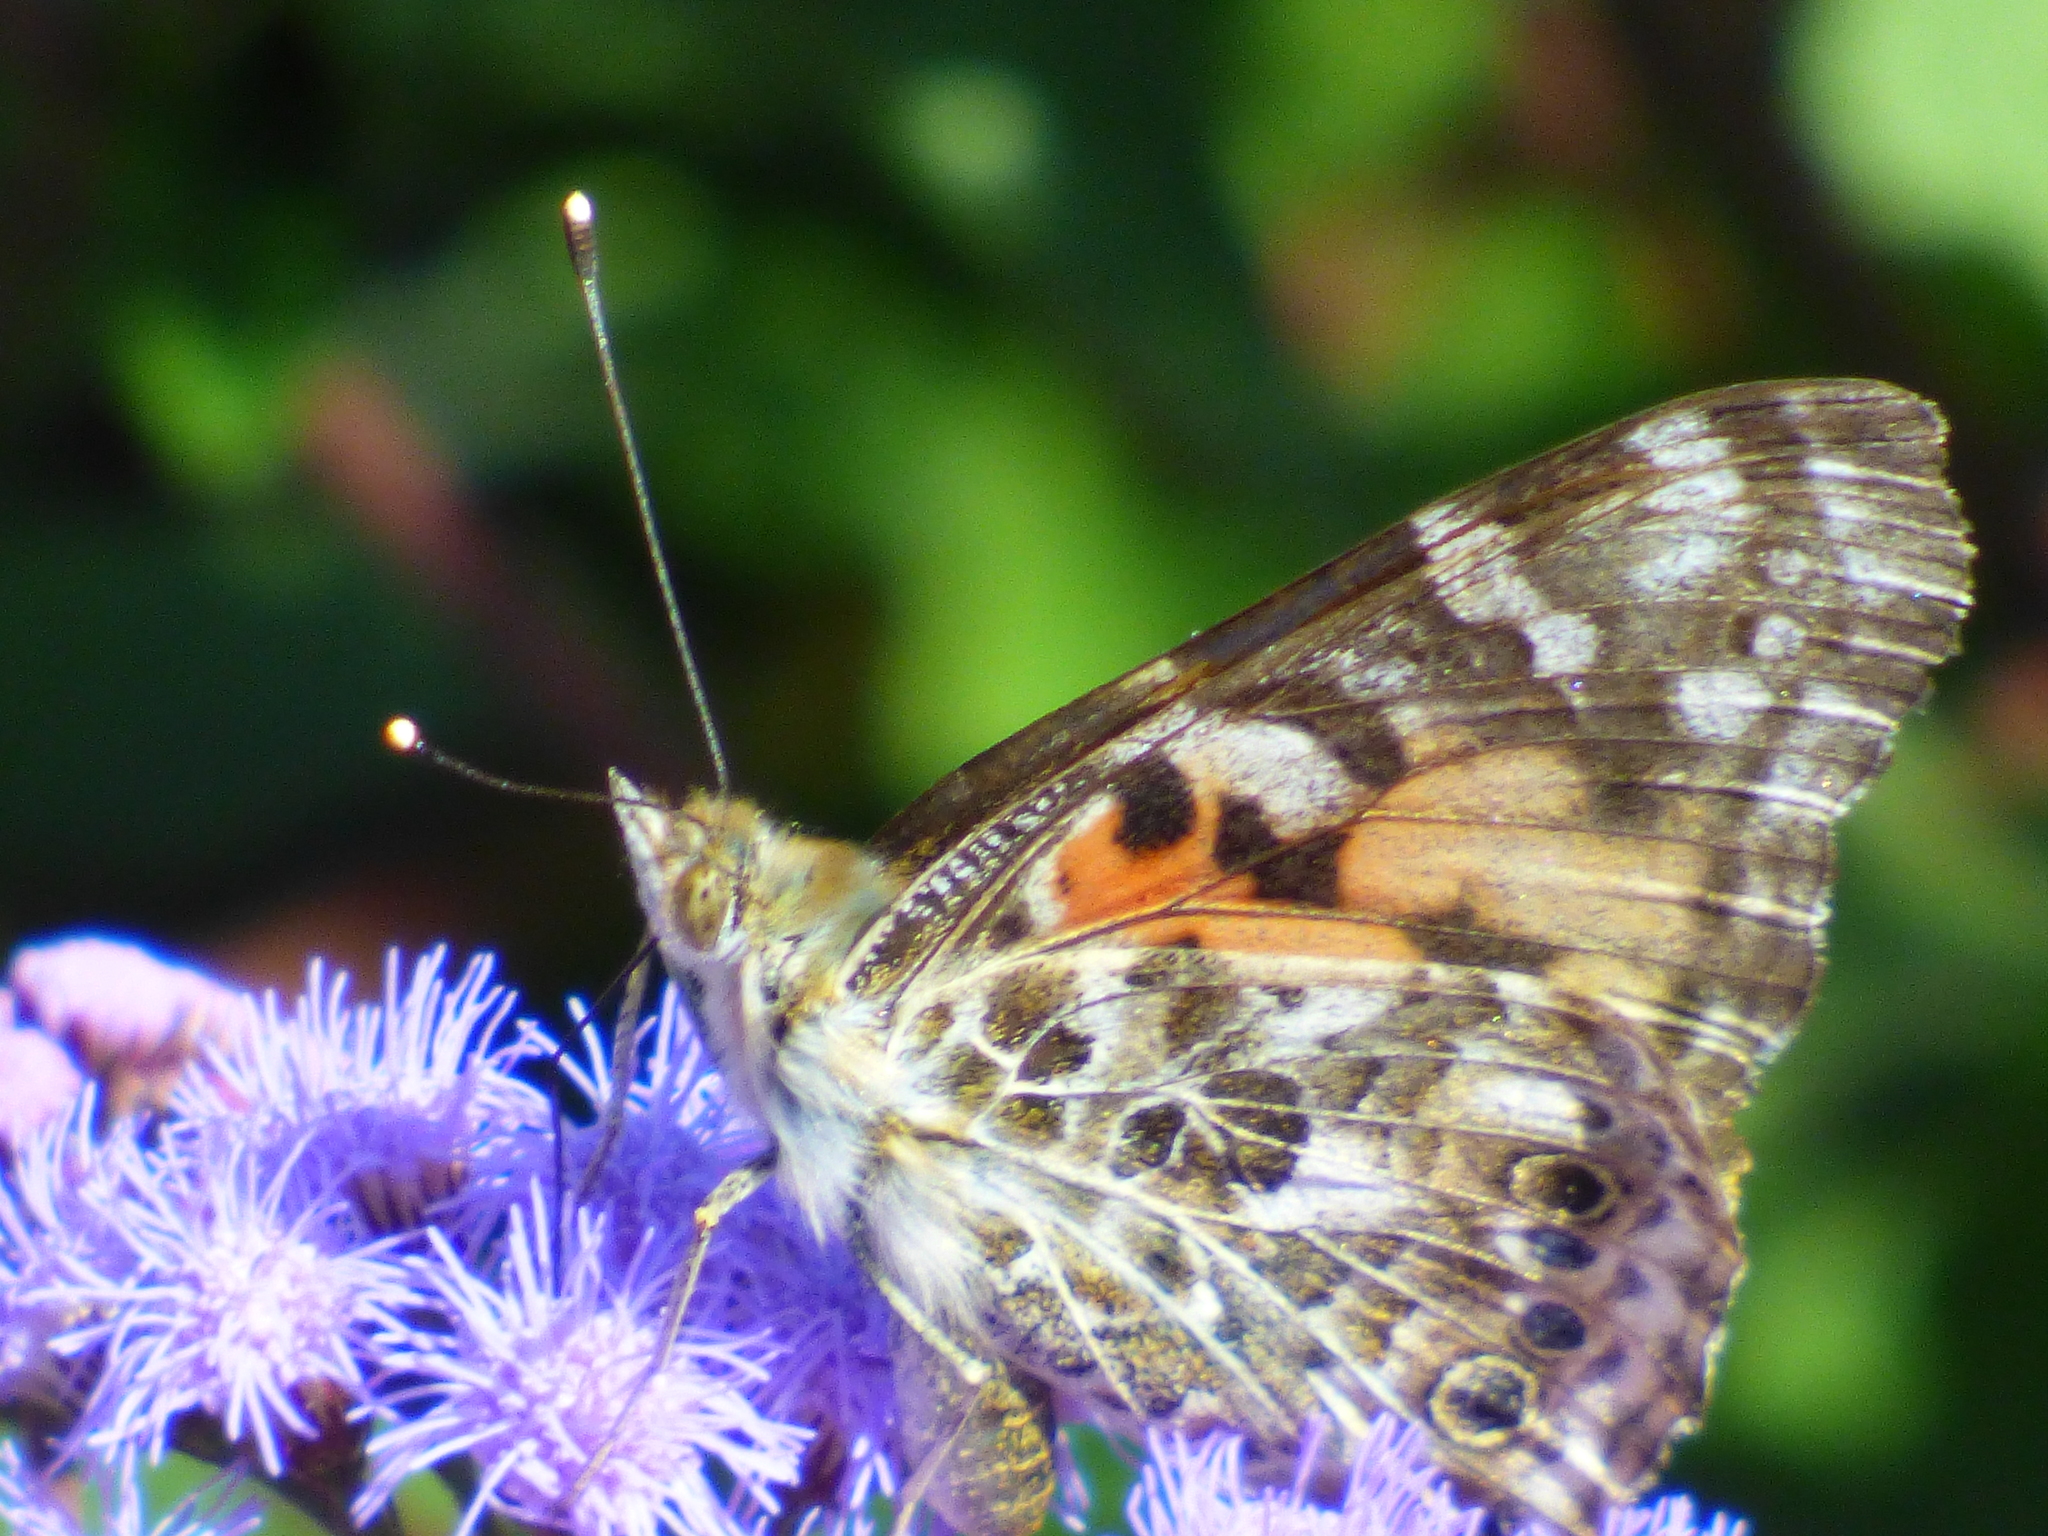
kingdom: Animalia
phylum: Arthropoda
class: Insecta
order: Lepidoptera
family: Nymphalidae
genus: Vanessa
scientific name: Vanessa cardui
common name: Painted lady
